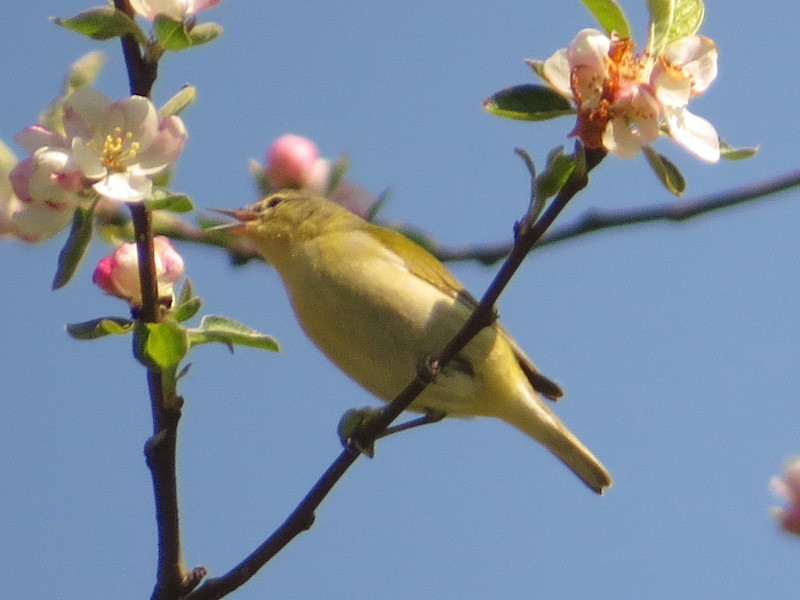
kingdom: Animalia
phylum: Chordata
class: Aves
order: Passeriformes
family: Parulidae
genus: Leiothlypis
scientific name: Leiothlypis peregrina
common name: Tennessee warbler
